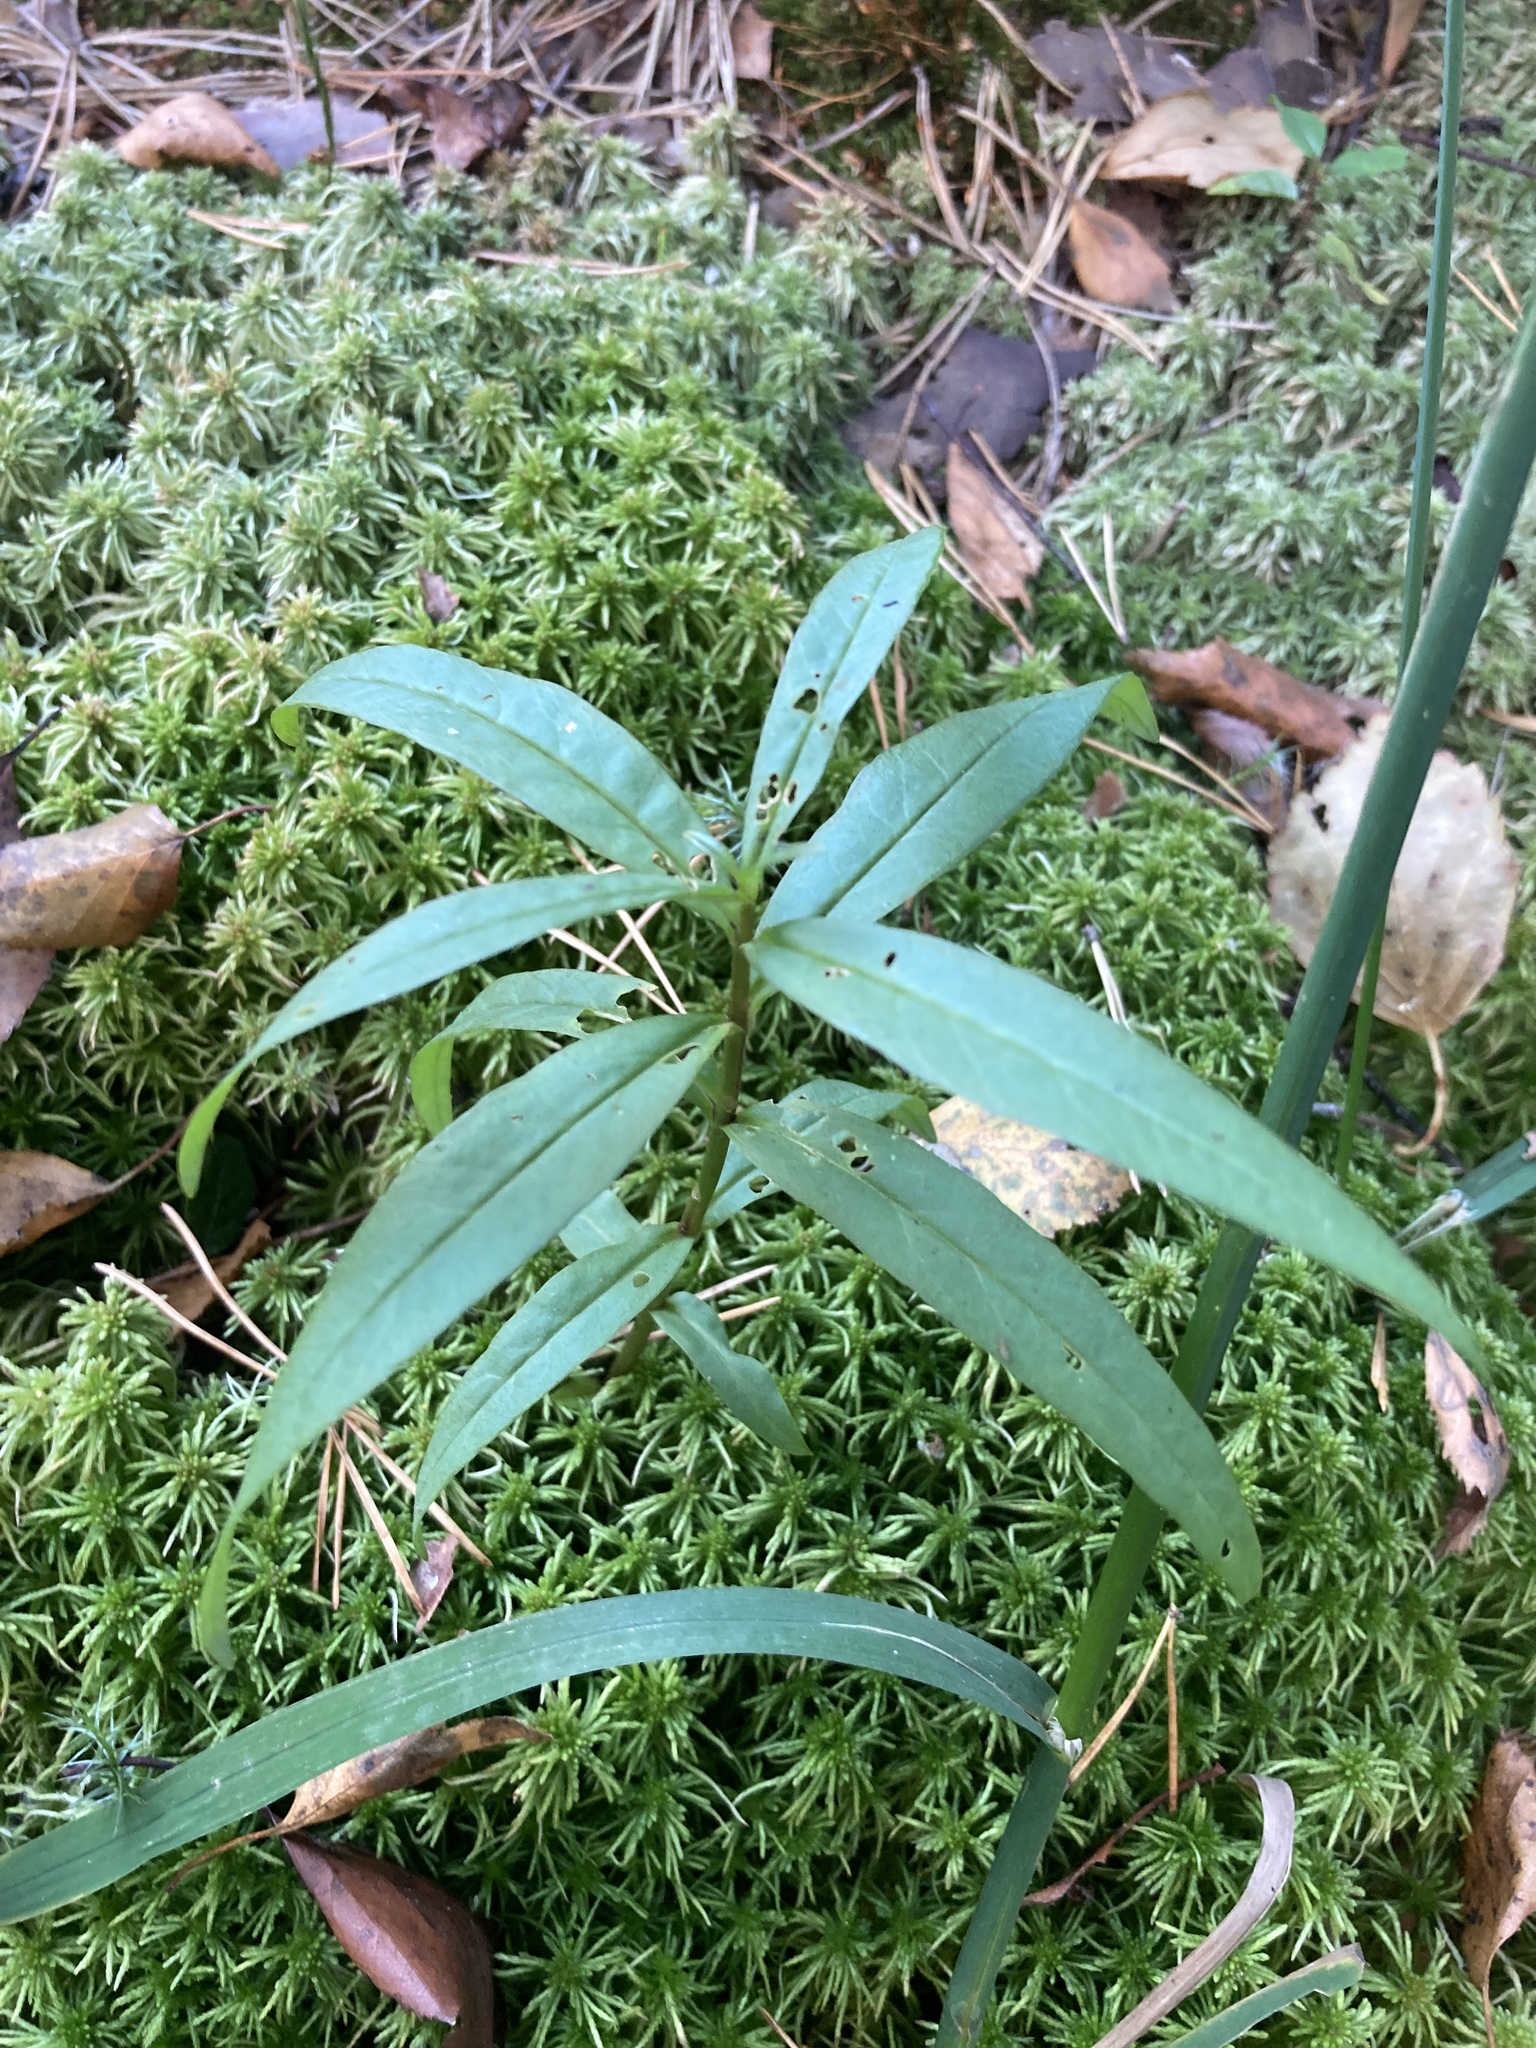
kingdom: Plantae
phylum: Tracheophyta
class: Magnoliopsida
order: Ericales
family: Primulaceae
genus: Lysimachia
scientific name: Lysimachia thyrsiflora
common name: Tufted loosestrife
